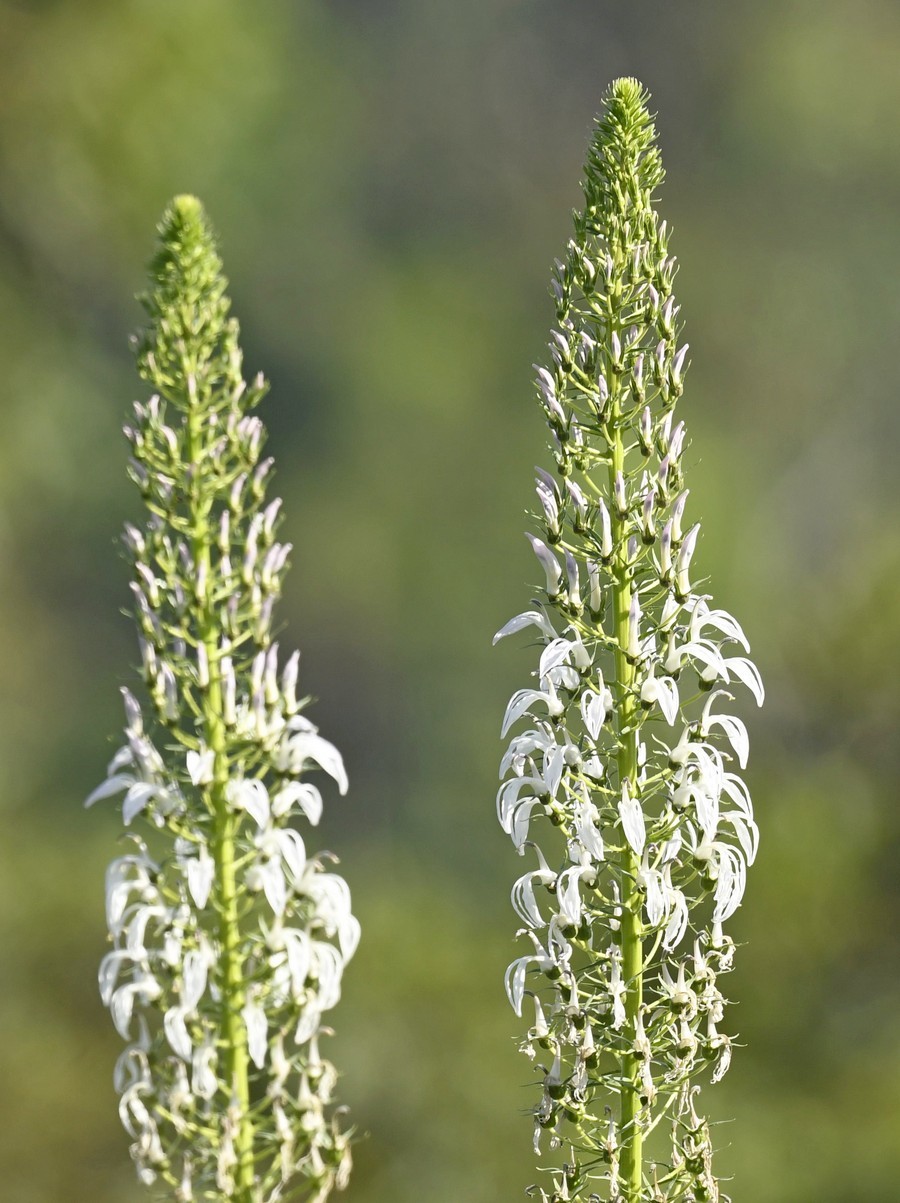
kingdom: Plantae
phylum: Tracheophyta
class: Magnoliopsida
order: Asterales
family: Campanulaceae
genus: Lobelia
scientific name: Lobelia nicotianifolia
